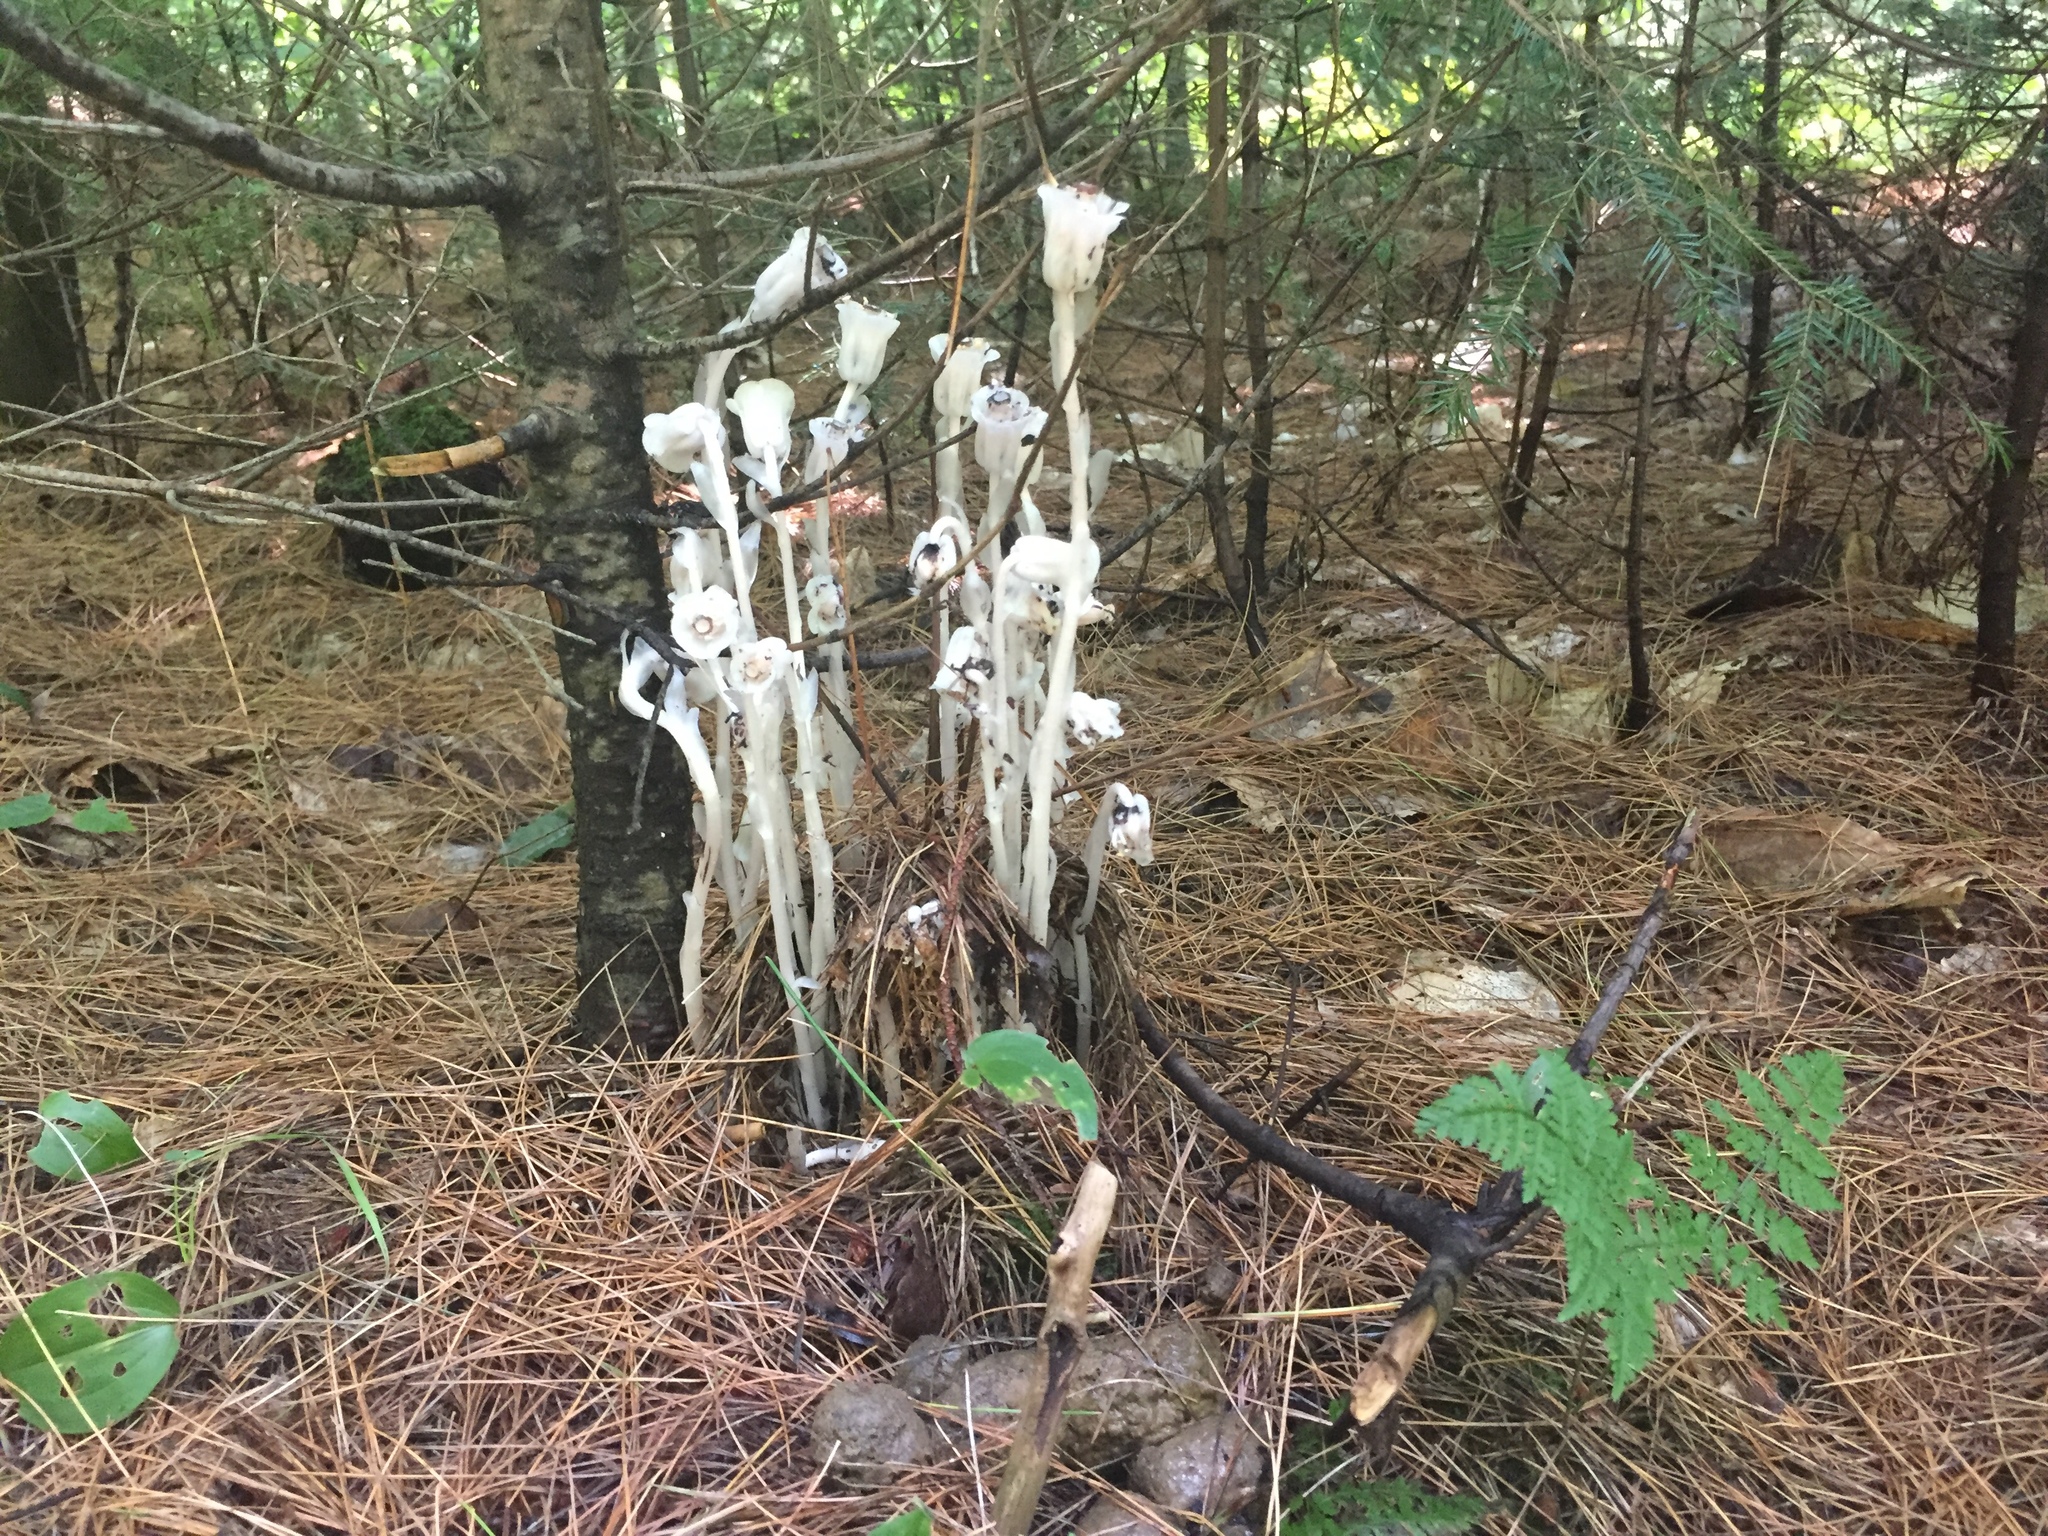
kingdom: Plantae
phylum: Tracheophyta
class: Magnoliopsida
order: Ericales
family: Ericaceae
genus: Monotropa
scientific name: Monotropa uniflora
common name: Convulsion root
